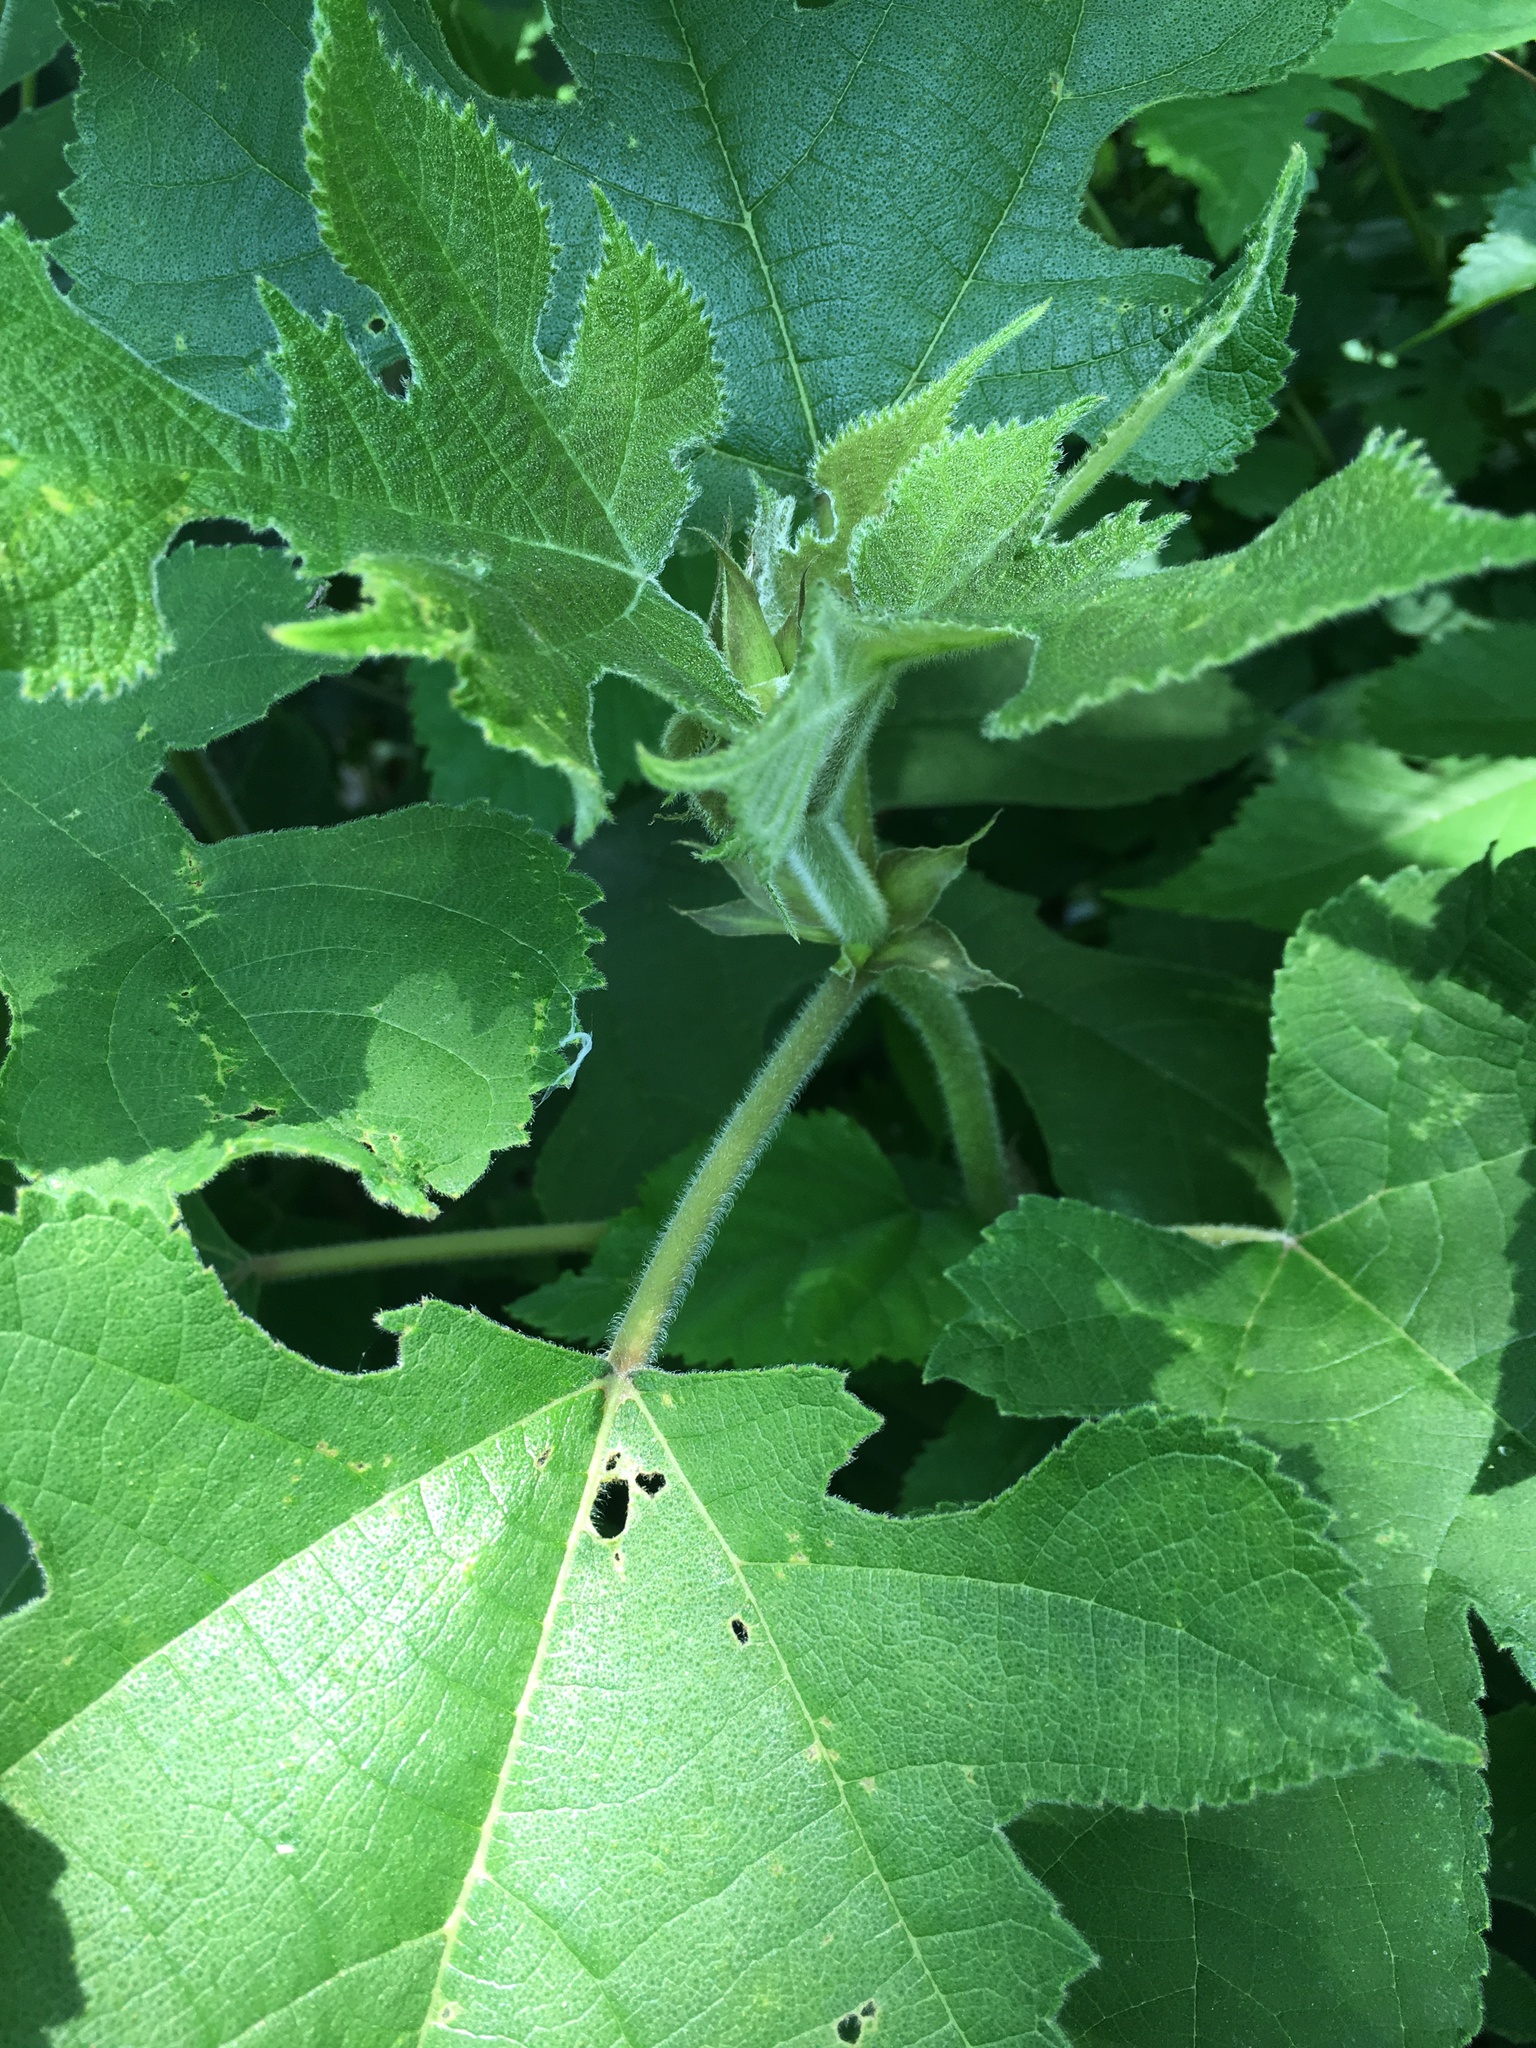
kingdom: Plantae
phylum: Tracheophyta
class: Magnoliopsida
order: Rosales
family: Moraceae
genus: Broussonetia
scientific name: Broussonetia papyrifera
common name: Paper mulberry
